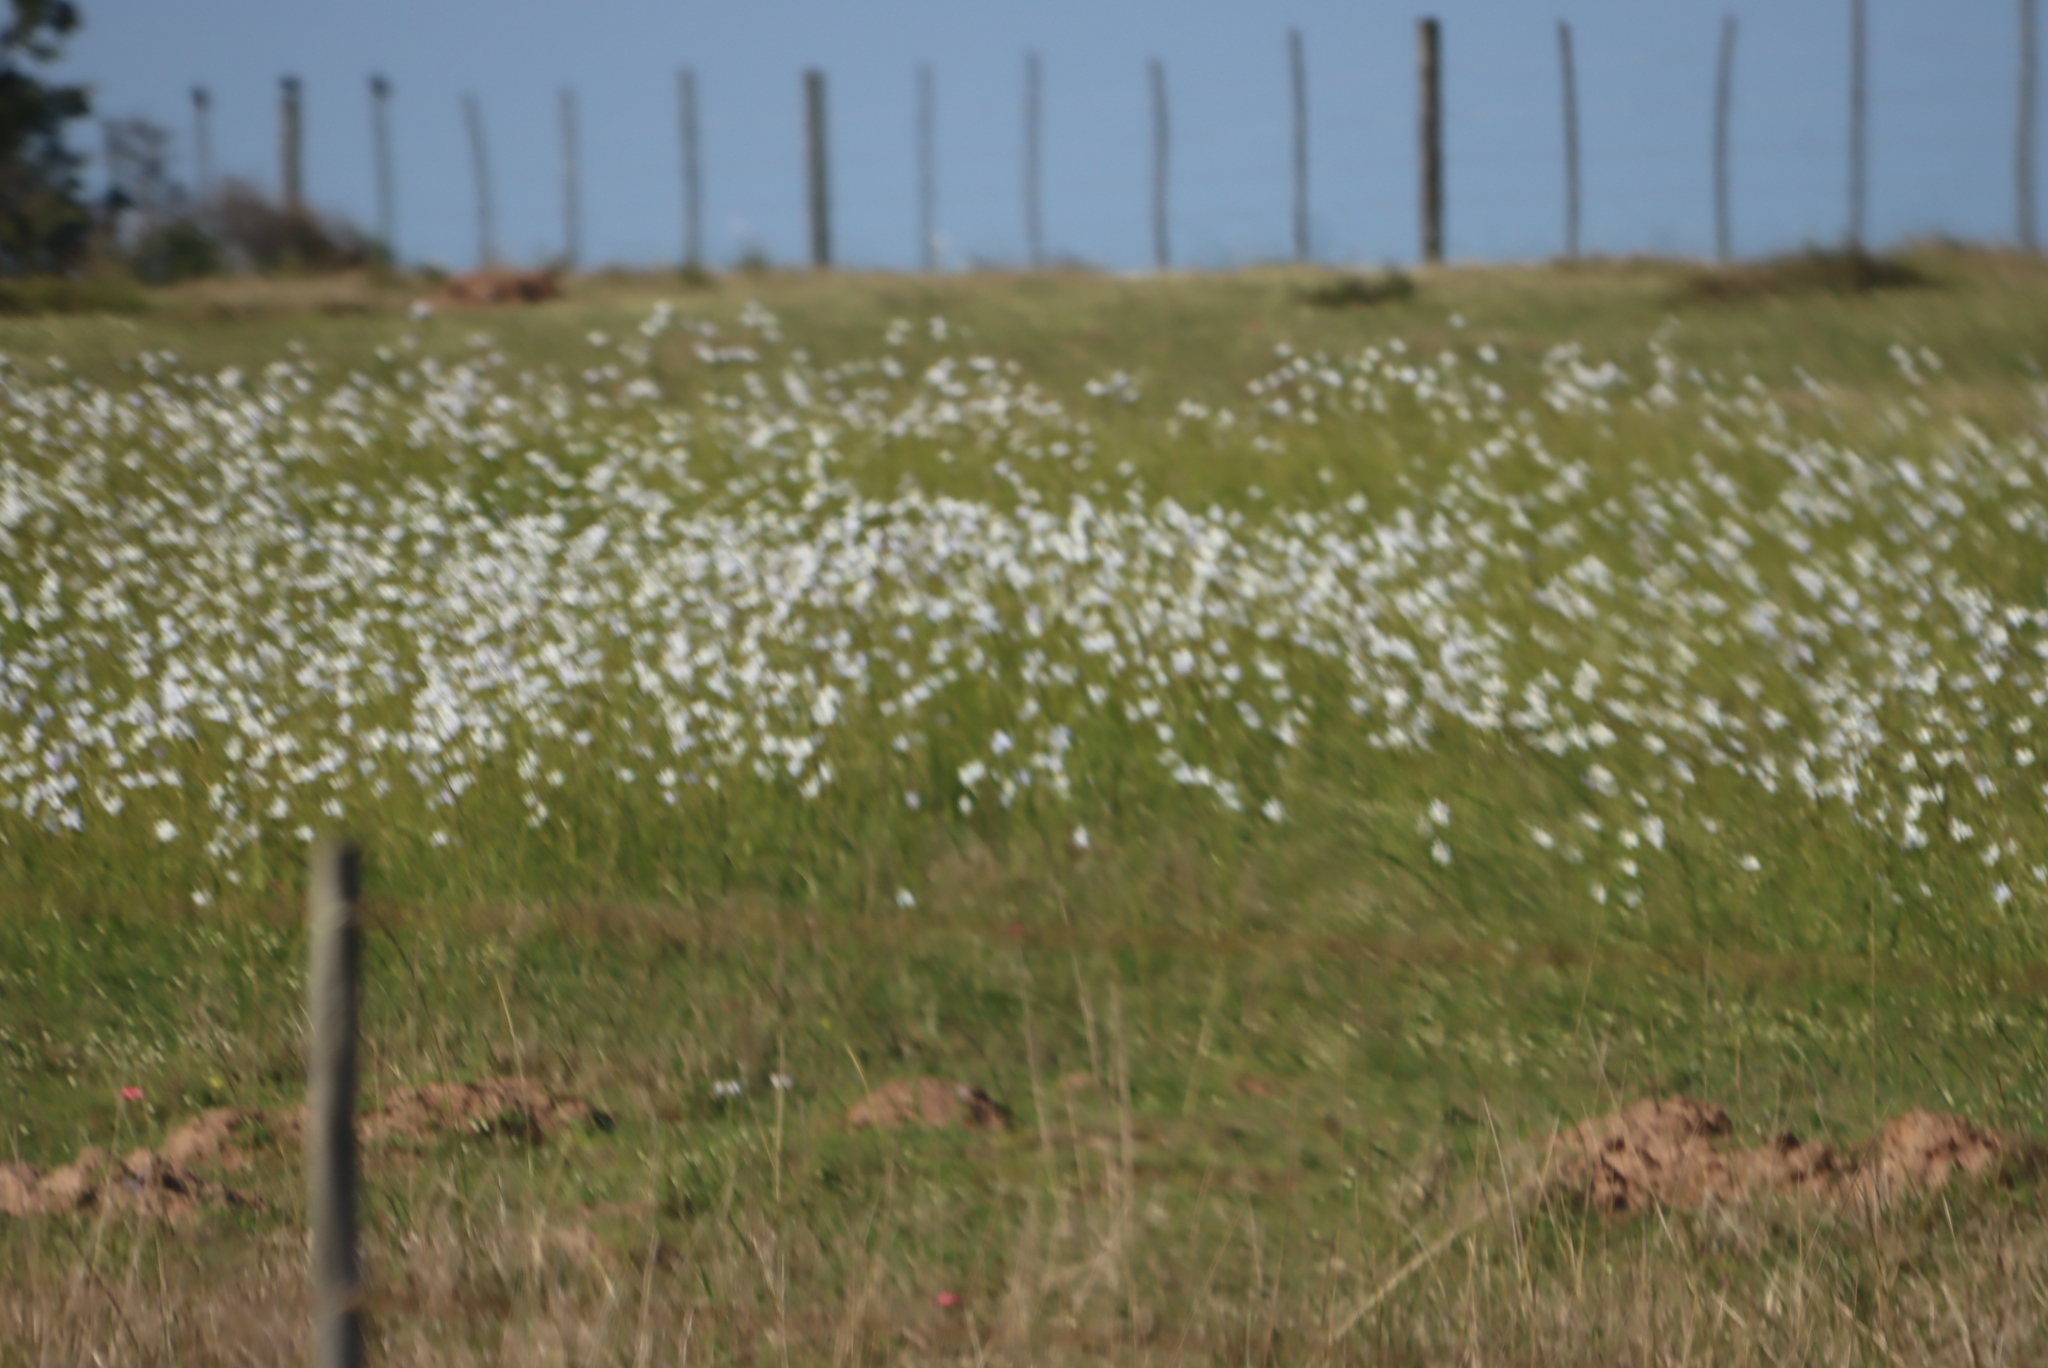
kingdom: Plantae
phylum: Tracheophyta
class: Liliopsida
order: Asparagales
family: Iridaceae
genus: Moraea
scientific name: Moraea polyanthos
